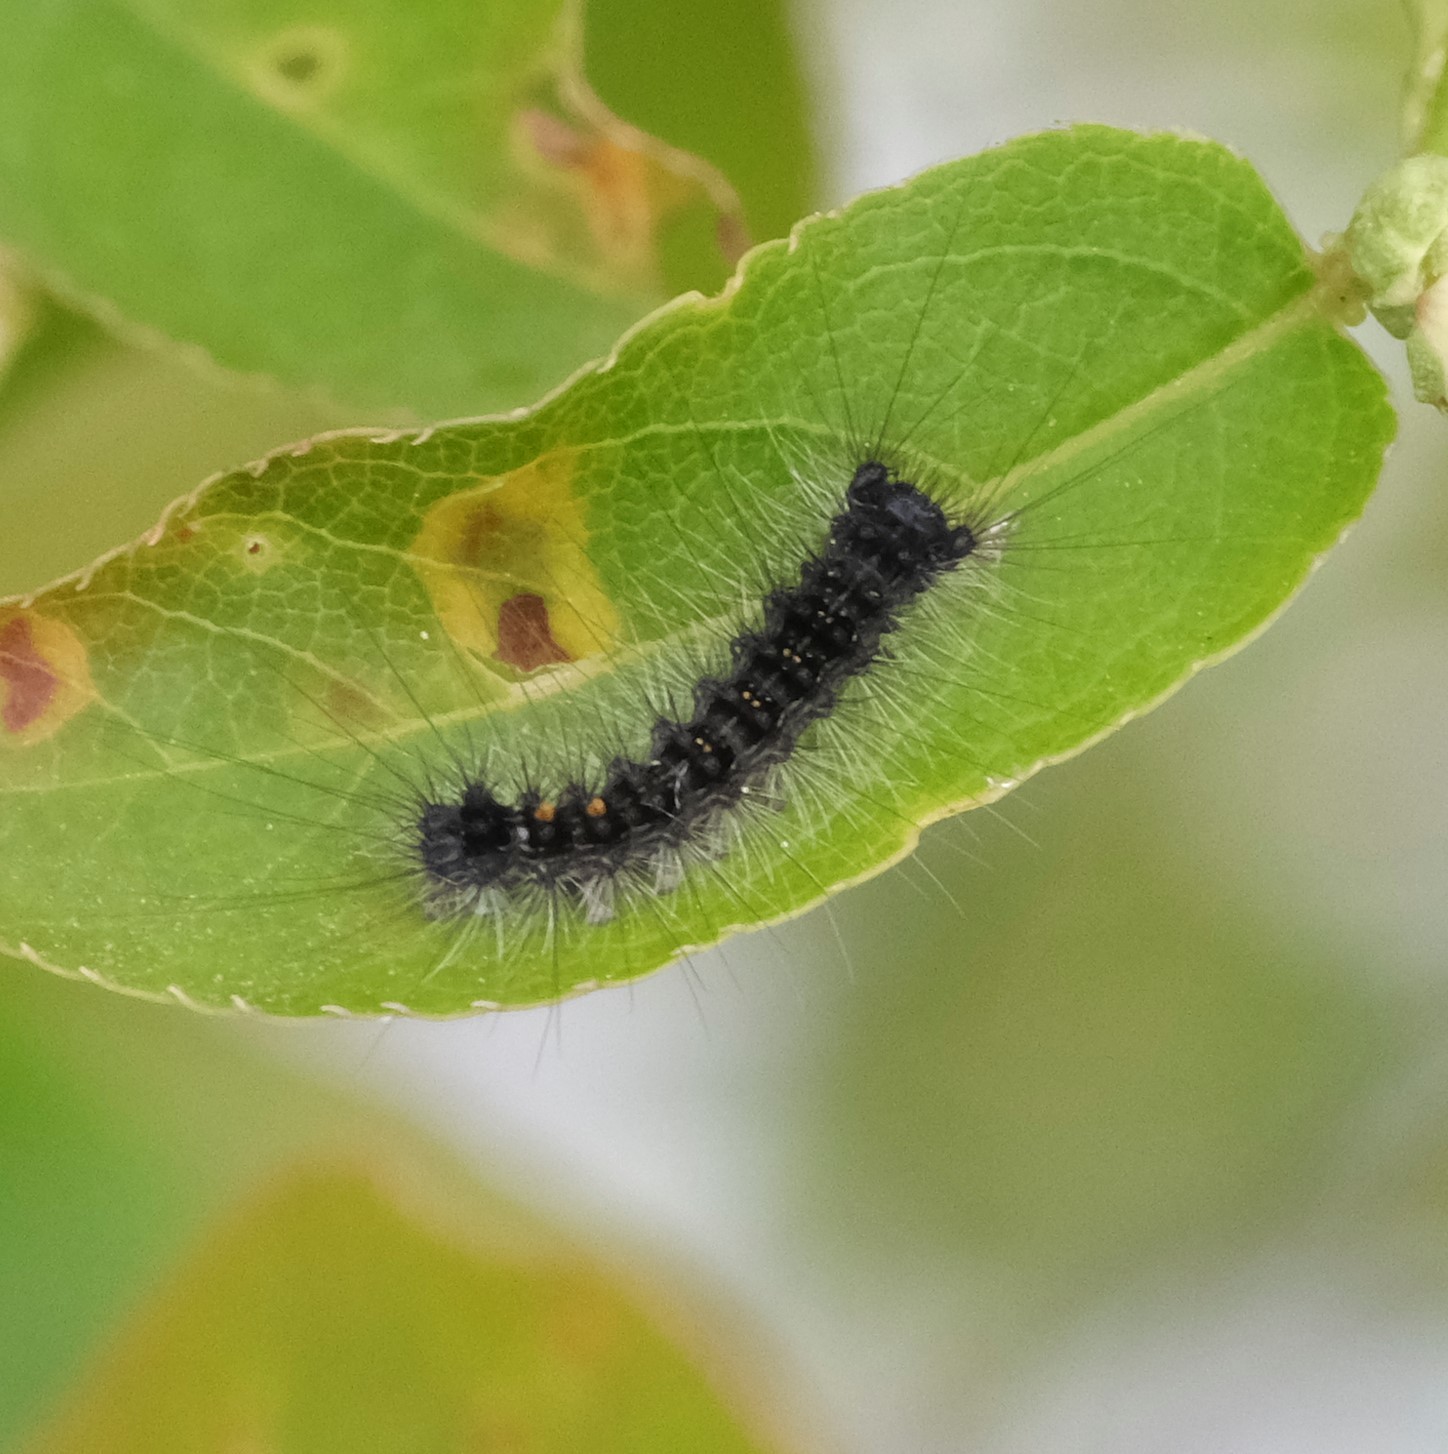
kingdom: Animalia
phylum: Arthropoda
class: Insecta
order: Lepidoptera
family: Erebidae
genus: Lymantria
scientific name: Lymantria dispar
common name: Gypsy moth
